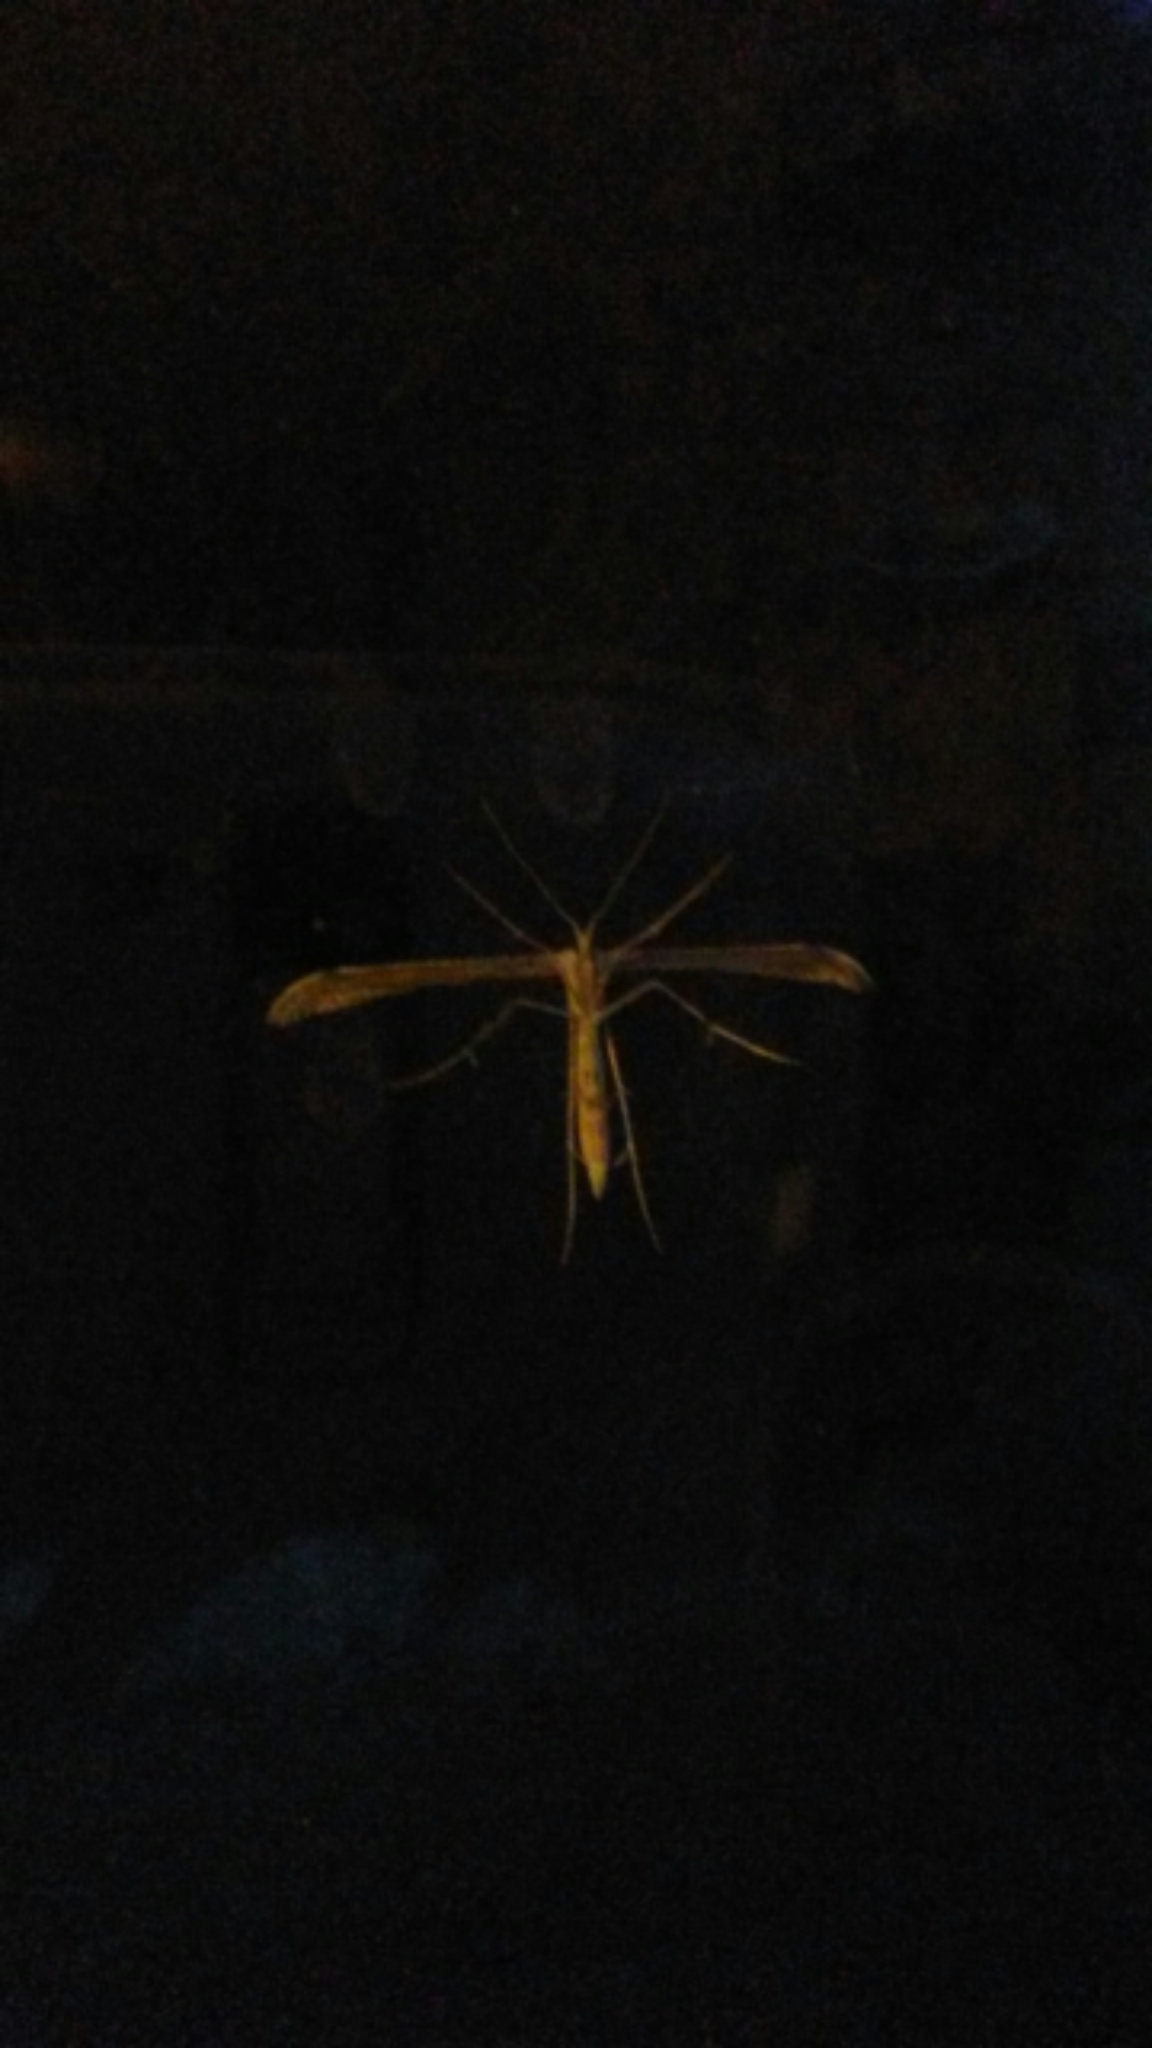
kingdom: Animalia
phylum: Arthropoda
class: Insecta
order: Lepidoptera
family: Pterophoridae
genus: Emmelina
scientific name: Emmelina monodactyla
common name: Common plume
